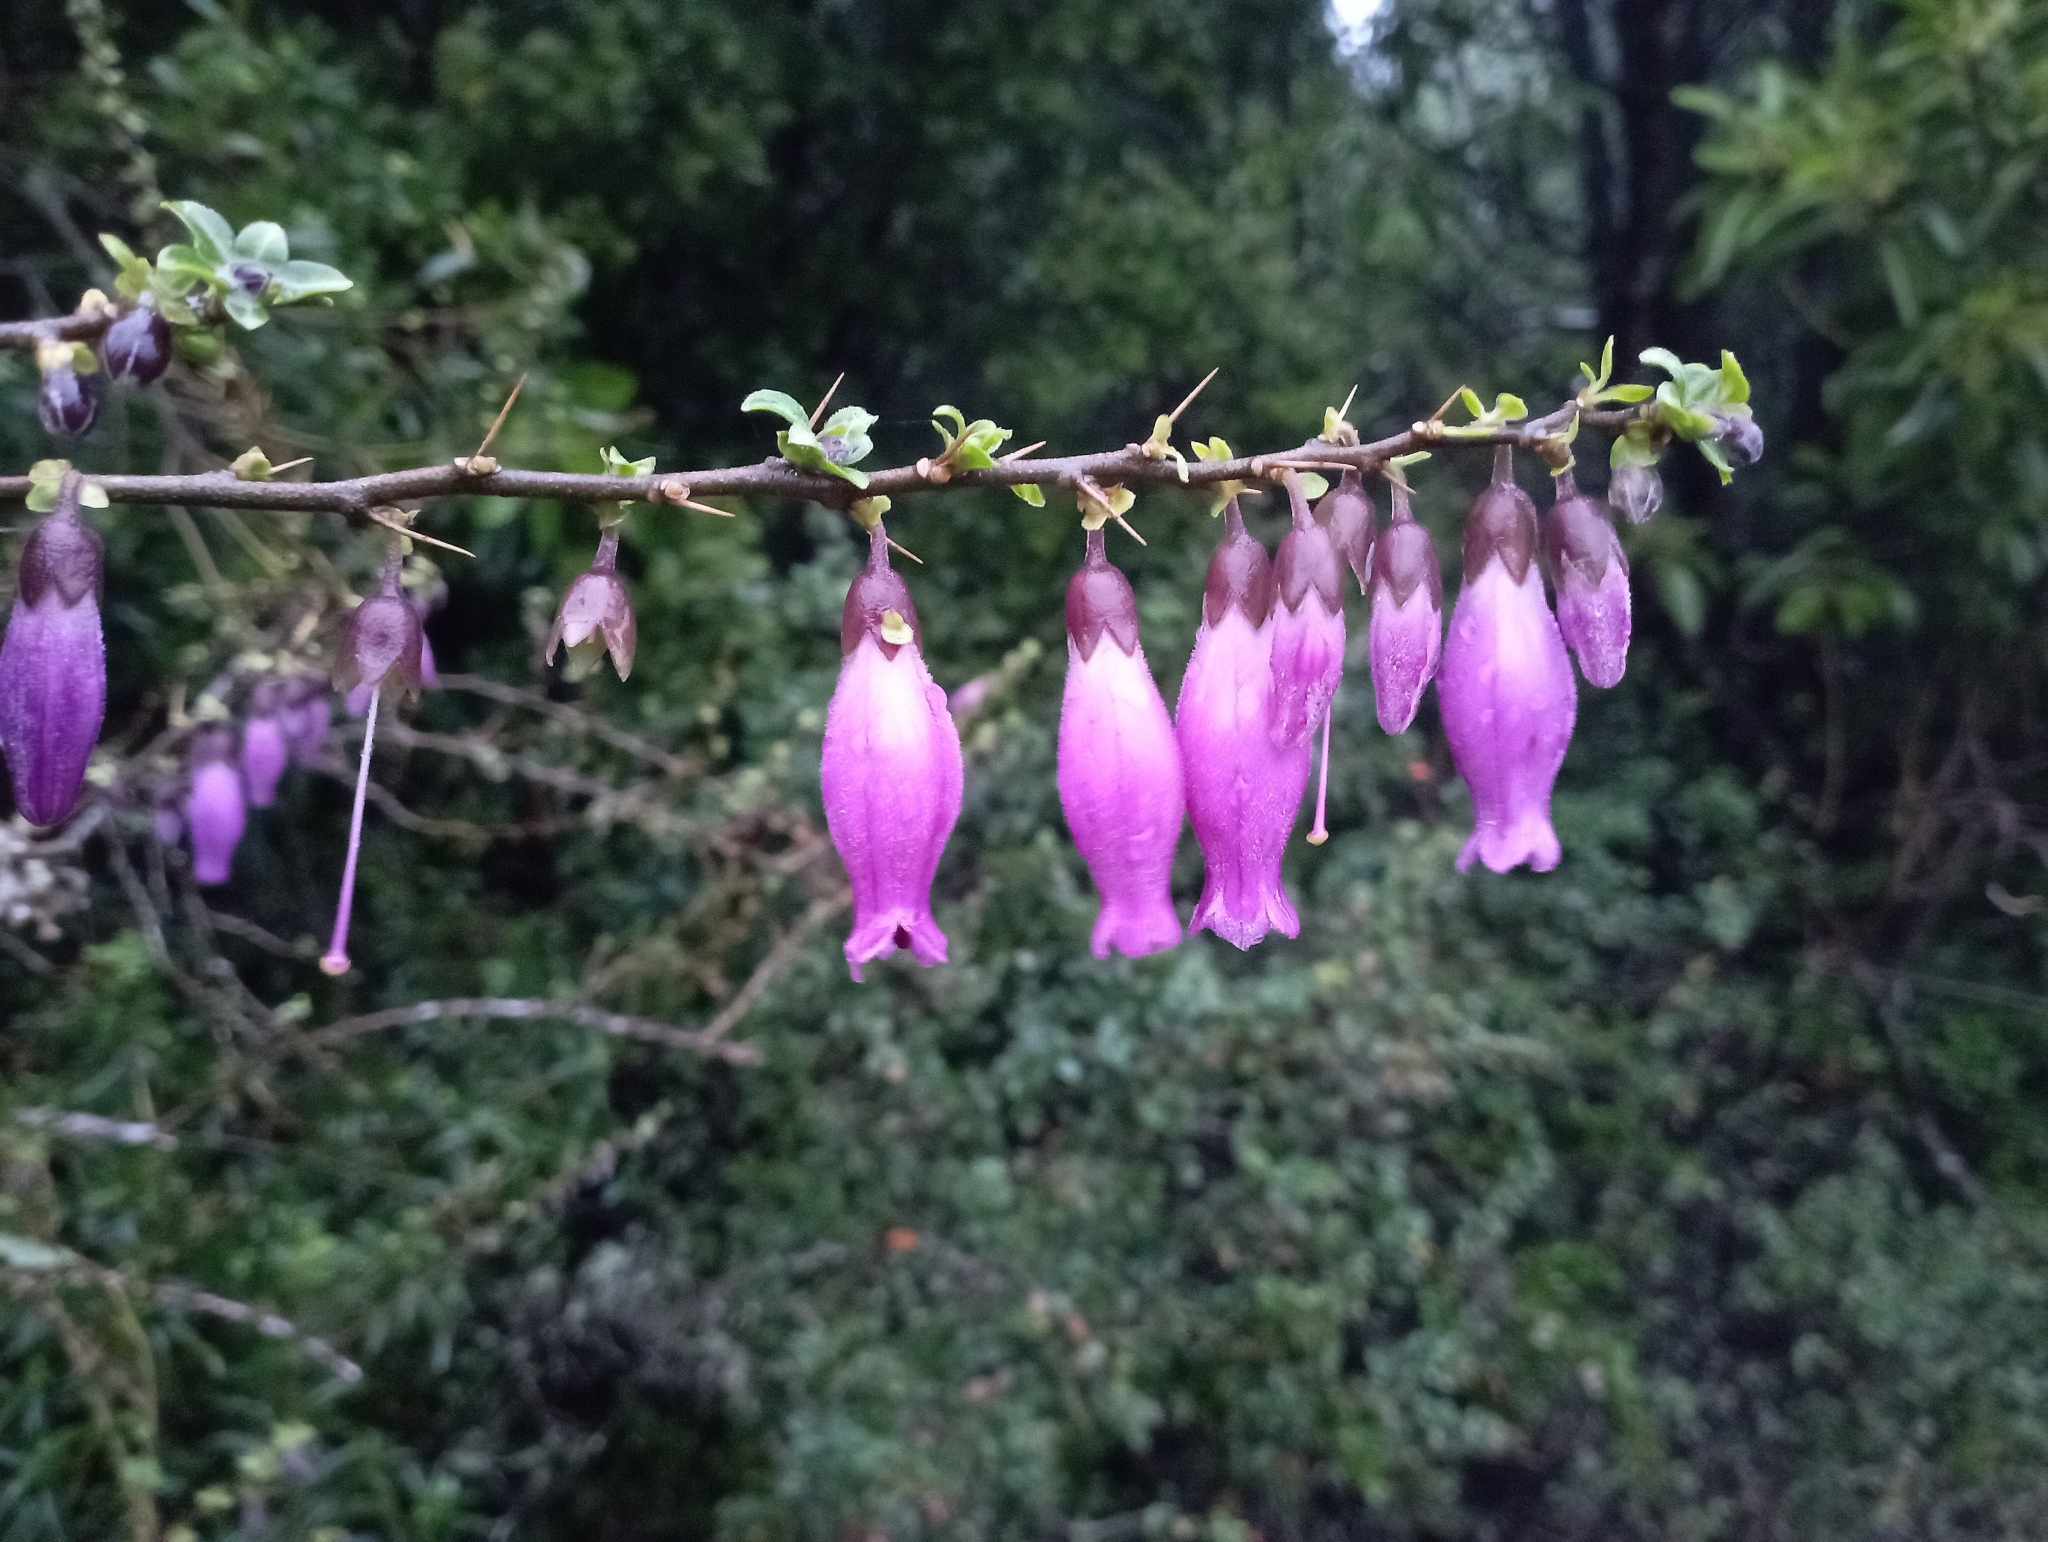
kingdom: Plantae
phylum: Tracheophyta
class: Magnoliopsida
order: Solanales
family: Solanaceae
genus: Latua
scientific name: Latua pubiflora
